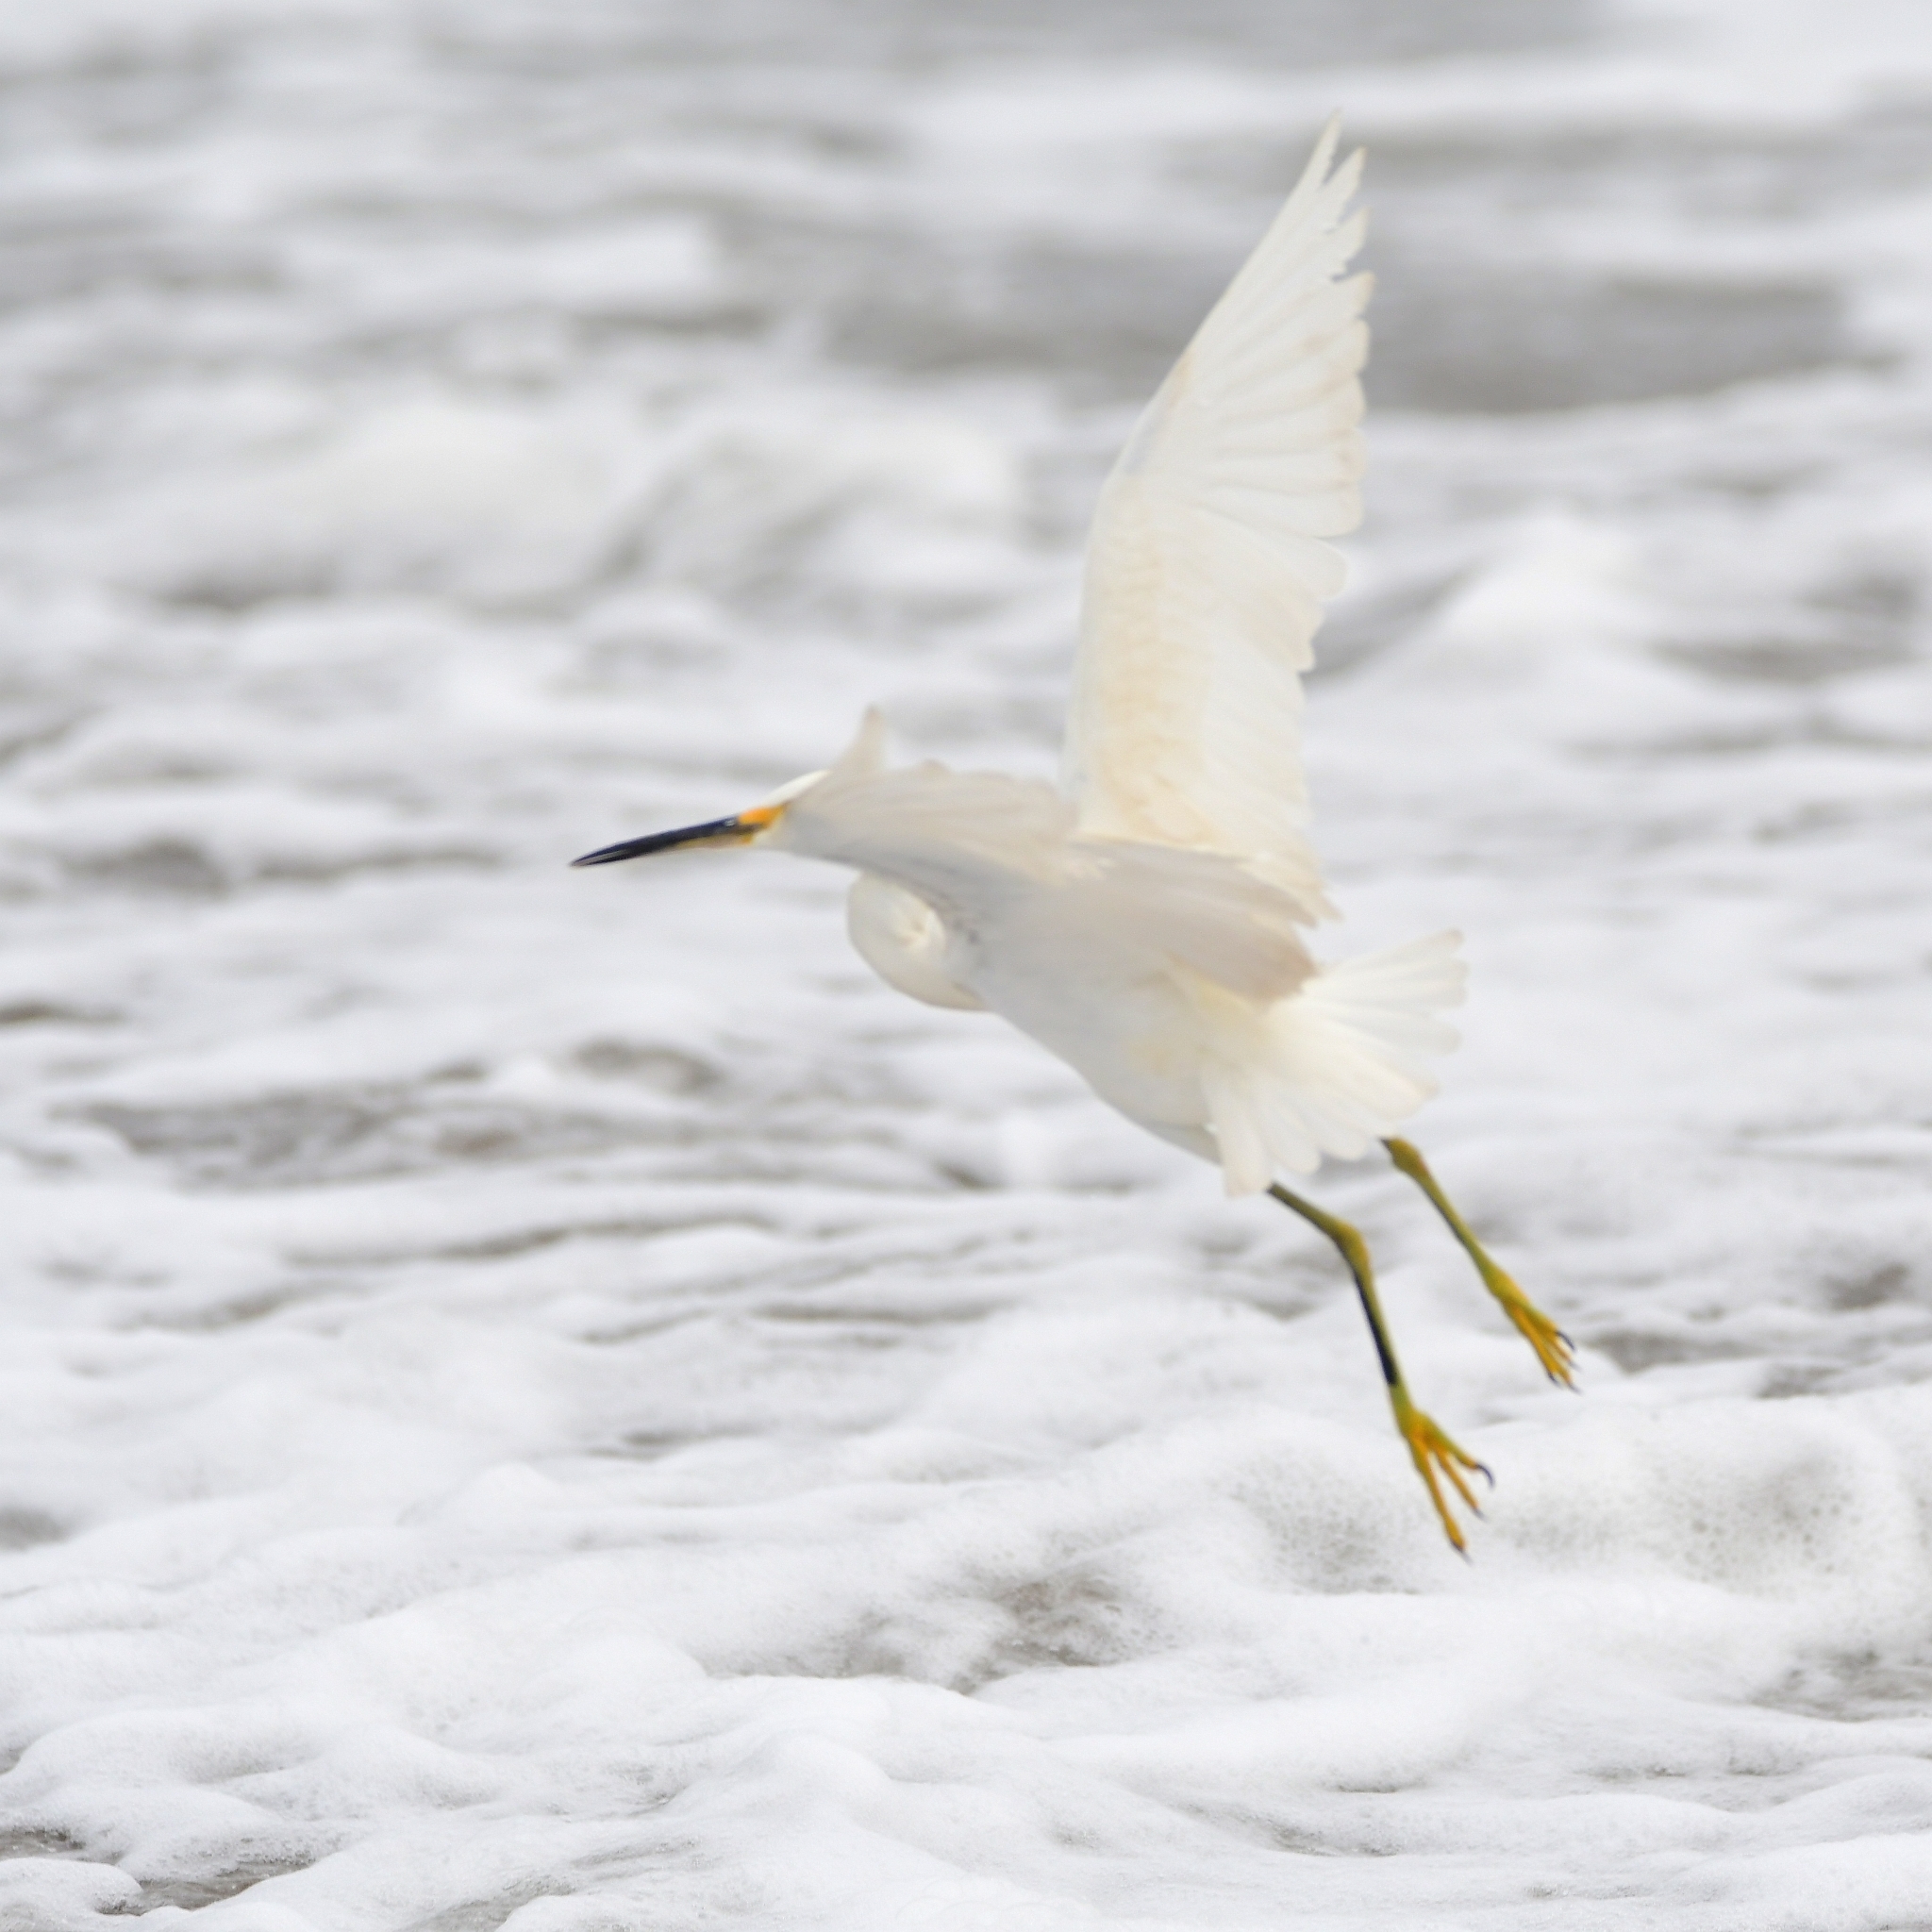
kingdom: Animalia
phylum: Chordata
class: Aves
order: Pelecaniformes
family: Ardeidae
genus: Egretta
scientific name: Egretta thula
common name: Snowy egret
